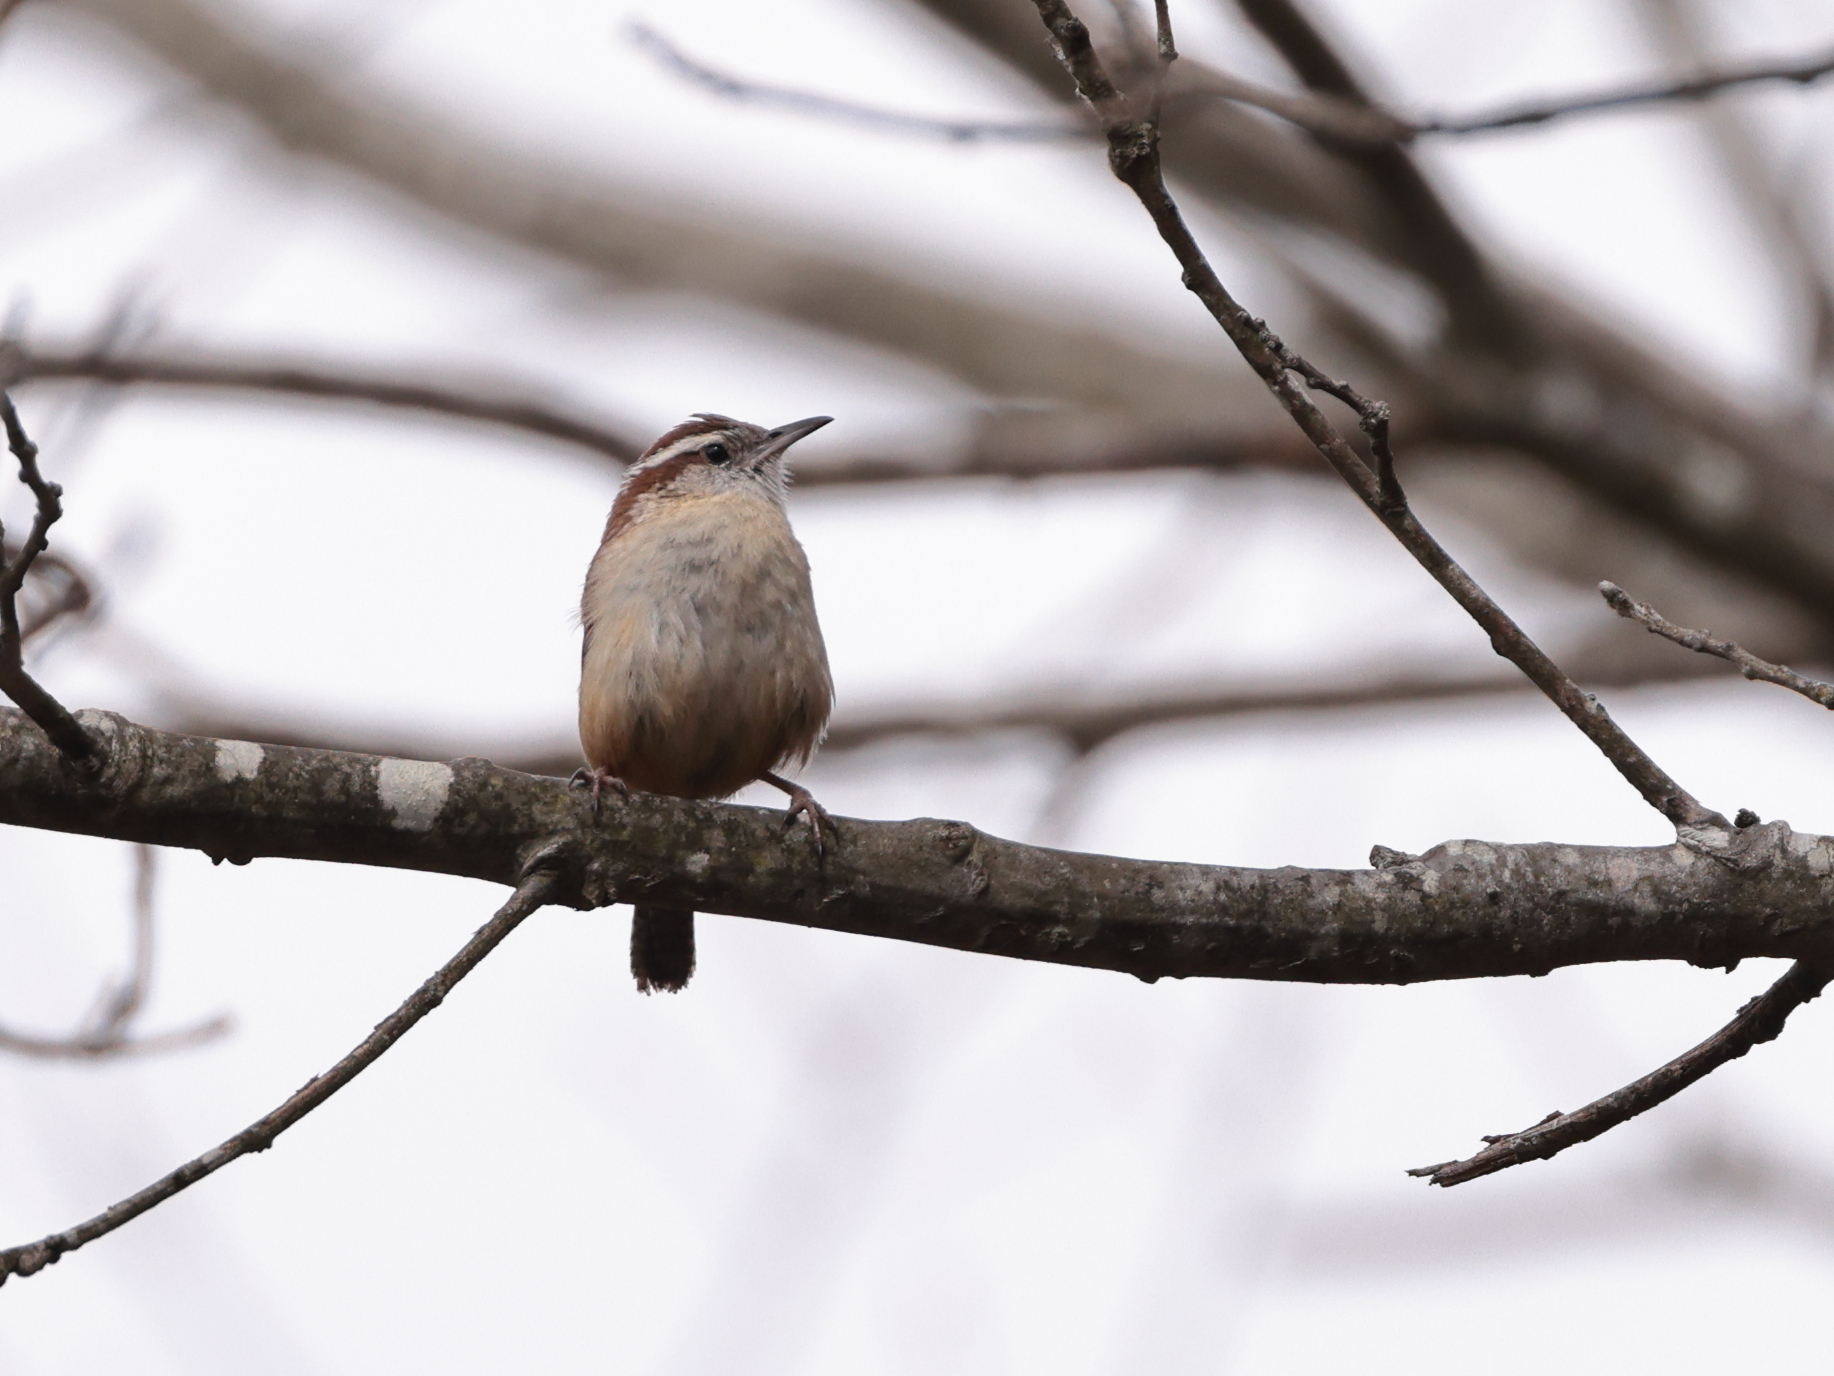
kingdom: Animalia
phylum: Chordata
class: Aves
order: Passeriformes
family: Troglodytidae
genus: Thryothorus
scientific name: Thryothorus ludovicianus
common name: Carolina wren
